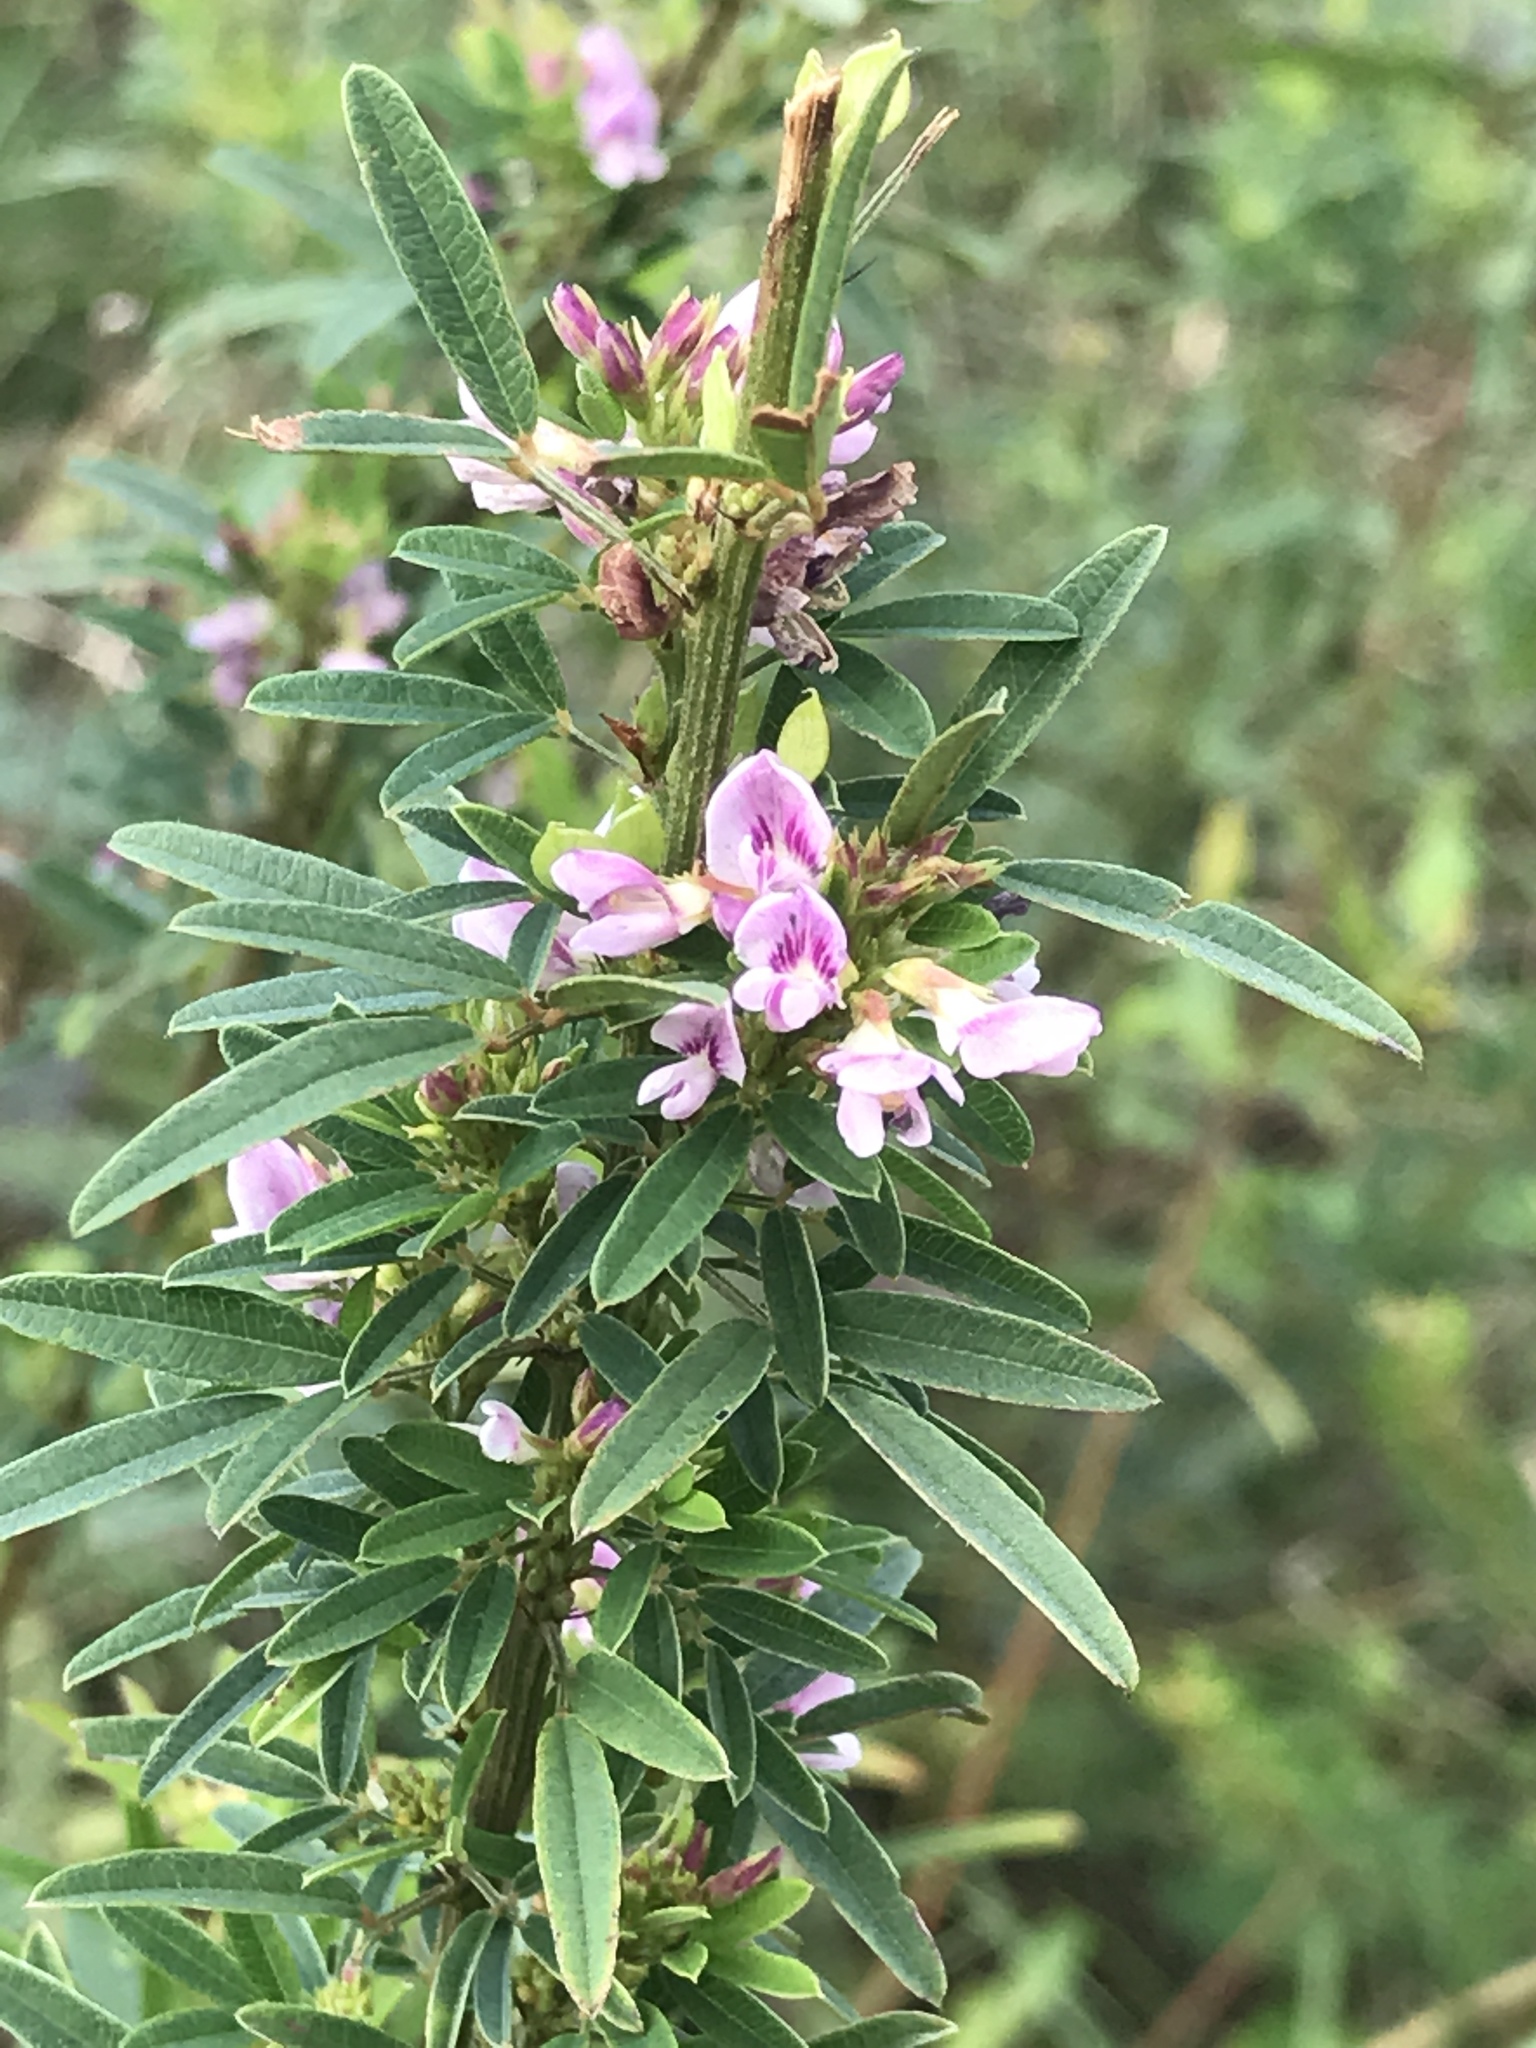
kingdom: Plantae
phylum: Tracheophyta
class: Magnoliopsida
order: Fabales
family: Fabaceae
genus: Lespedeza
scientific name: Lespedeza virginica
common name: Slender bush-clover
